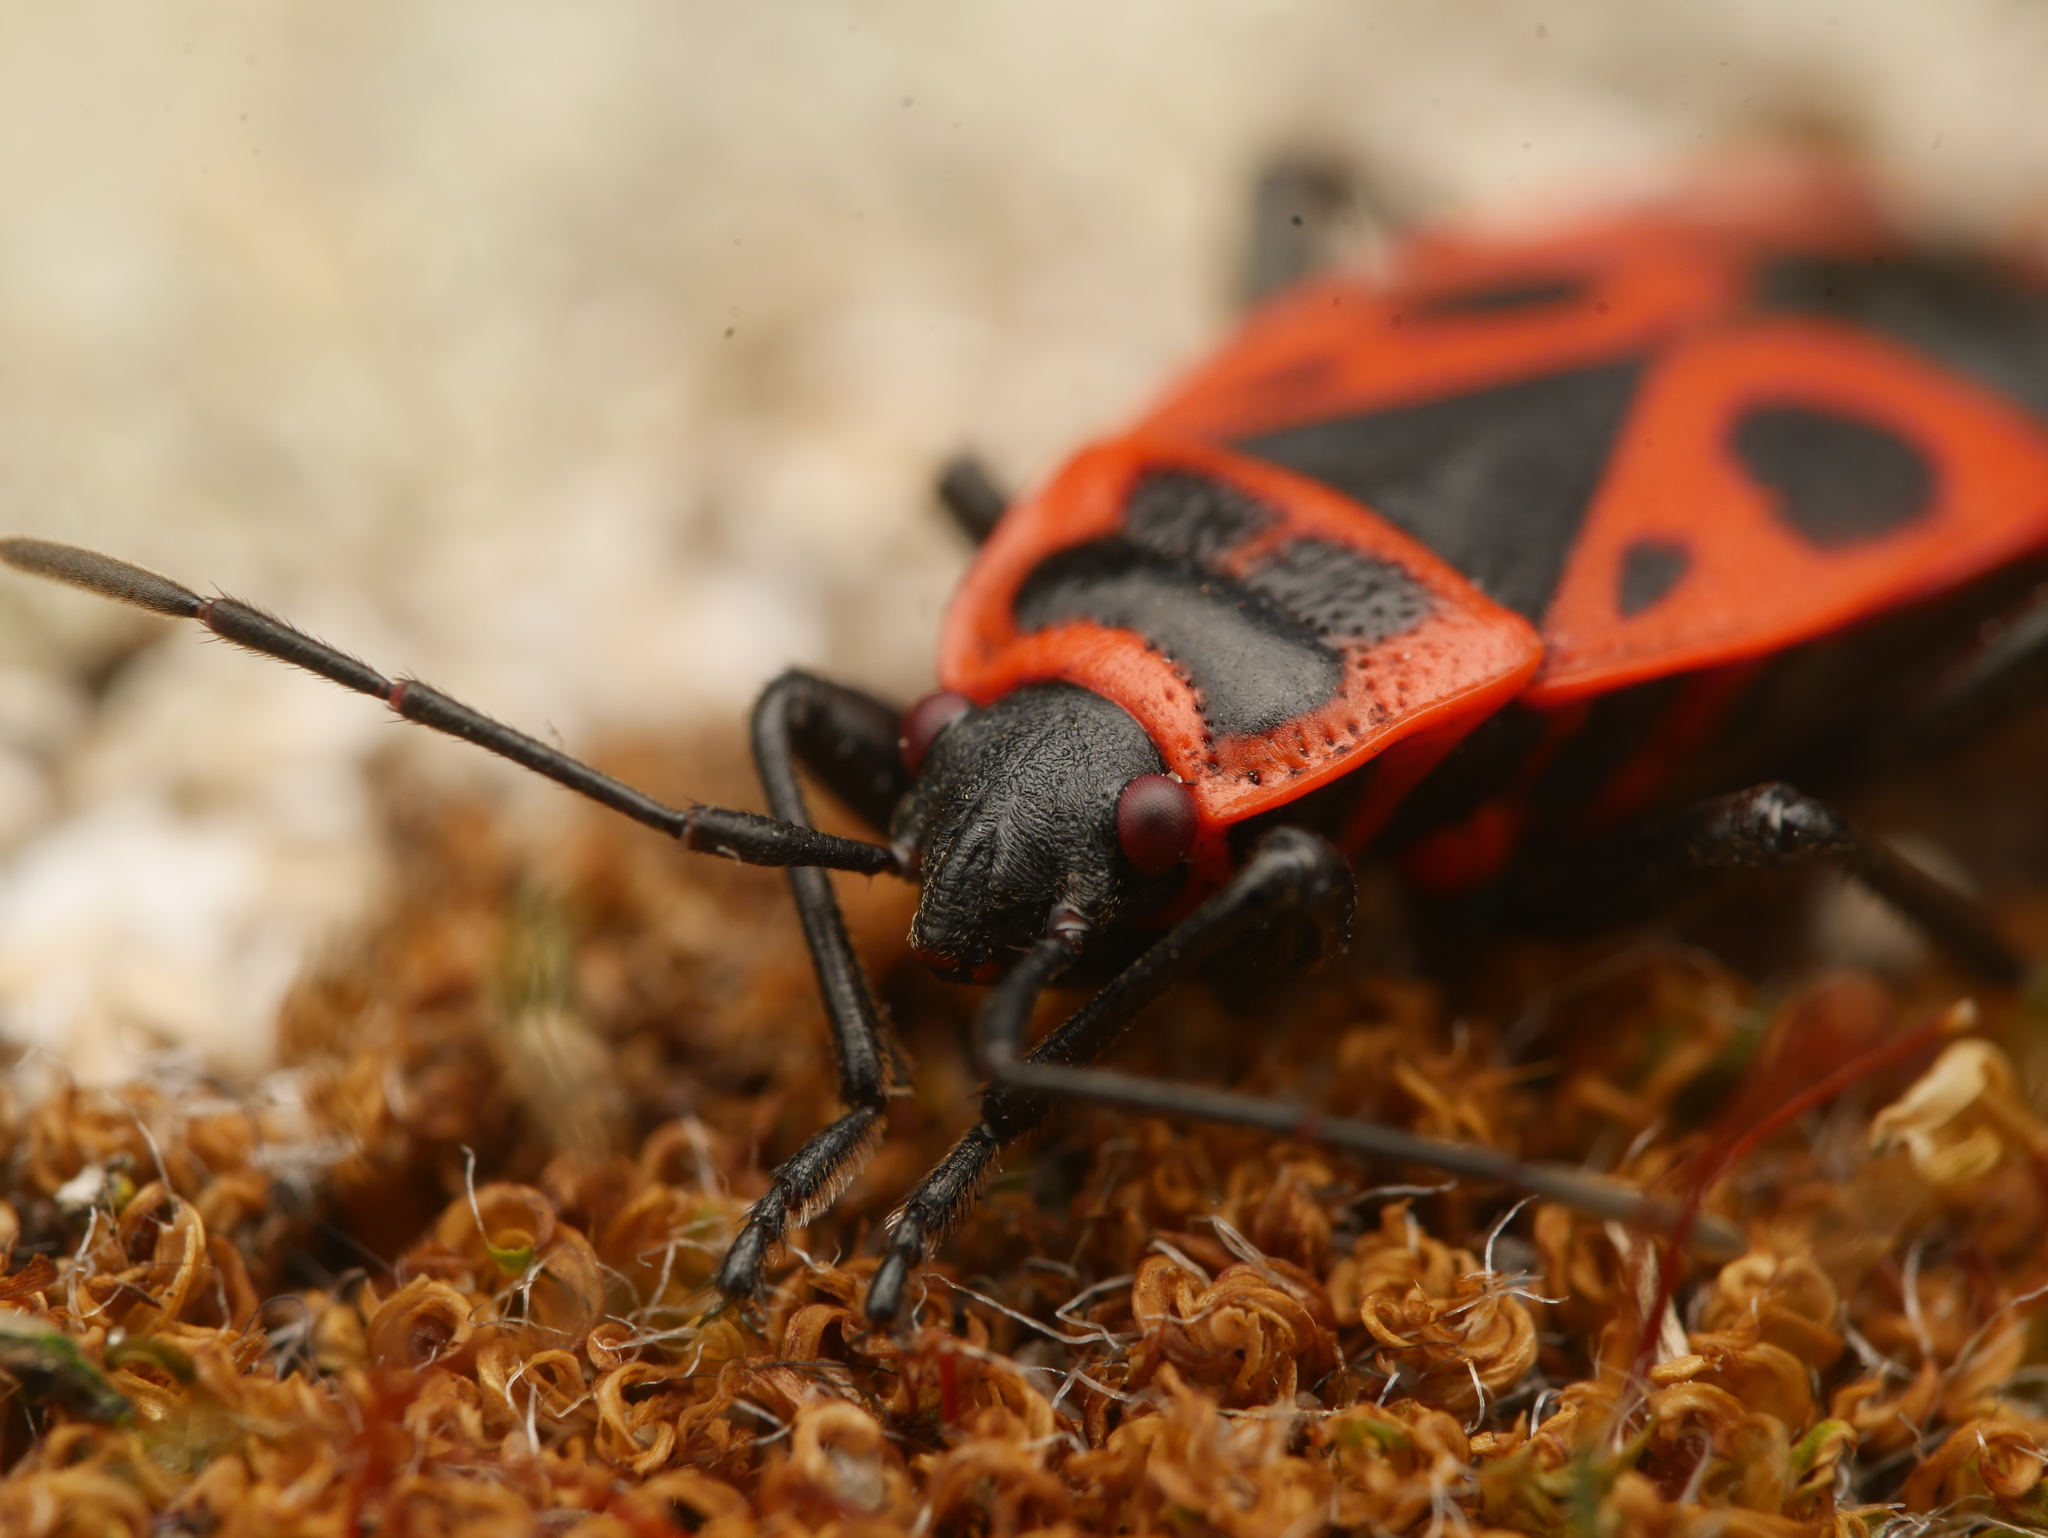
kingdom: Animalia
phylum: Arthropoda
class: Insecta
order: Hemiptera
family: Pyrrhocoridae
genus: Pyrrhocoris
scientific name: Pyrrhocoris apterus
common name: Firebug
